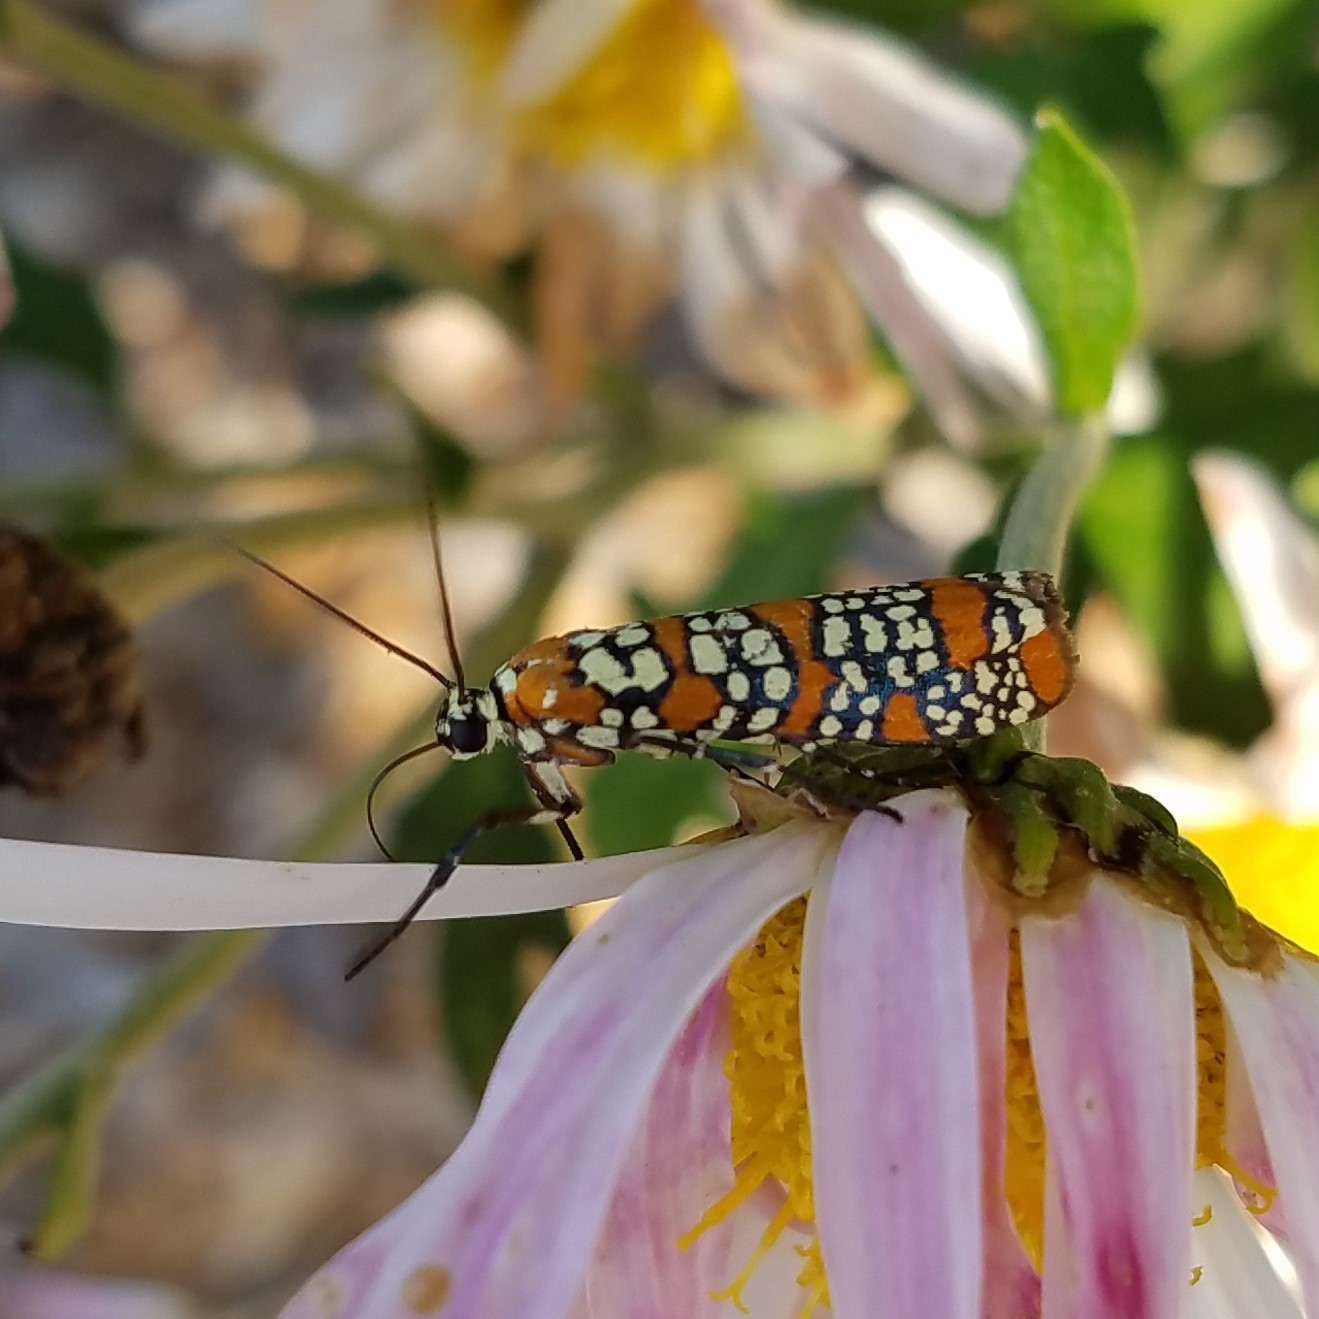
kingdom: Animalia
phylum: Arthropoda
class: Insecta
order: Lepidoptera
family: Attevidae
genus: Atteva
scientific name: Atteva punctella
